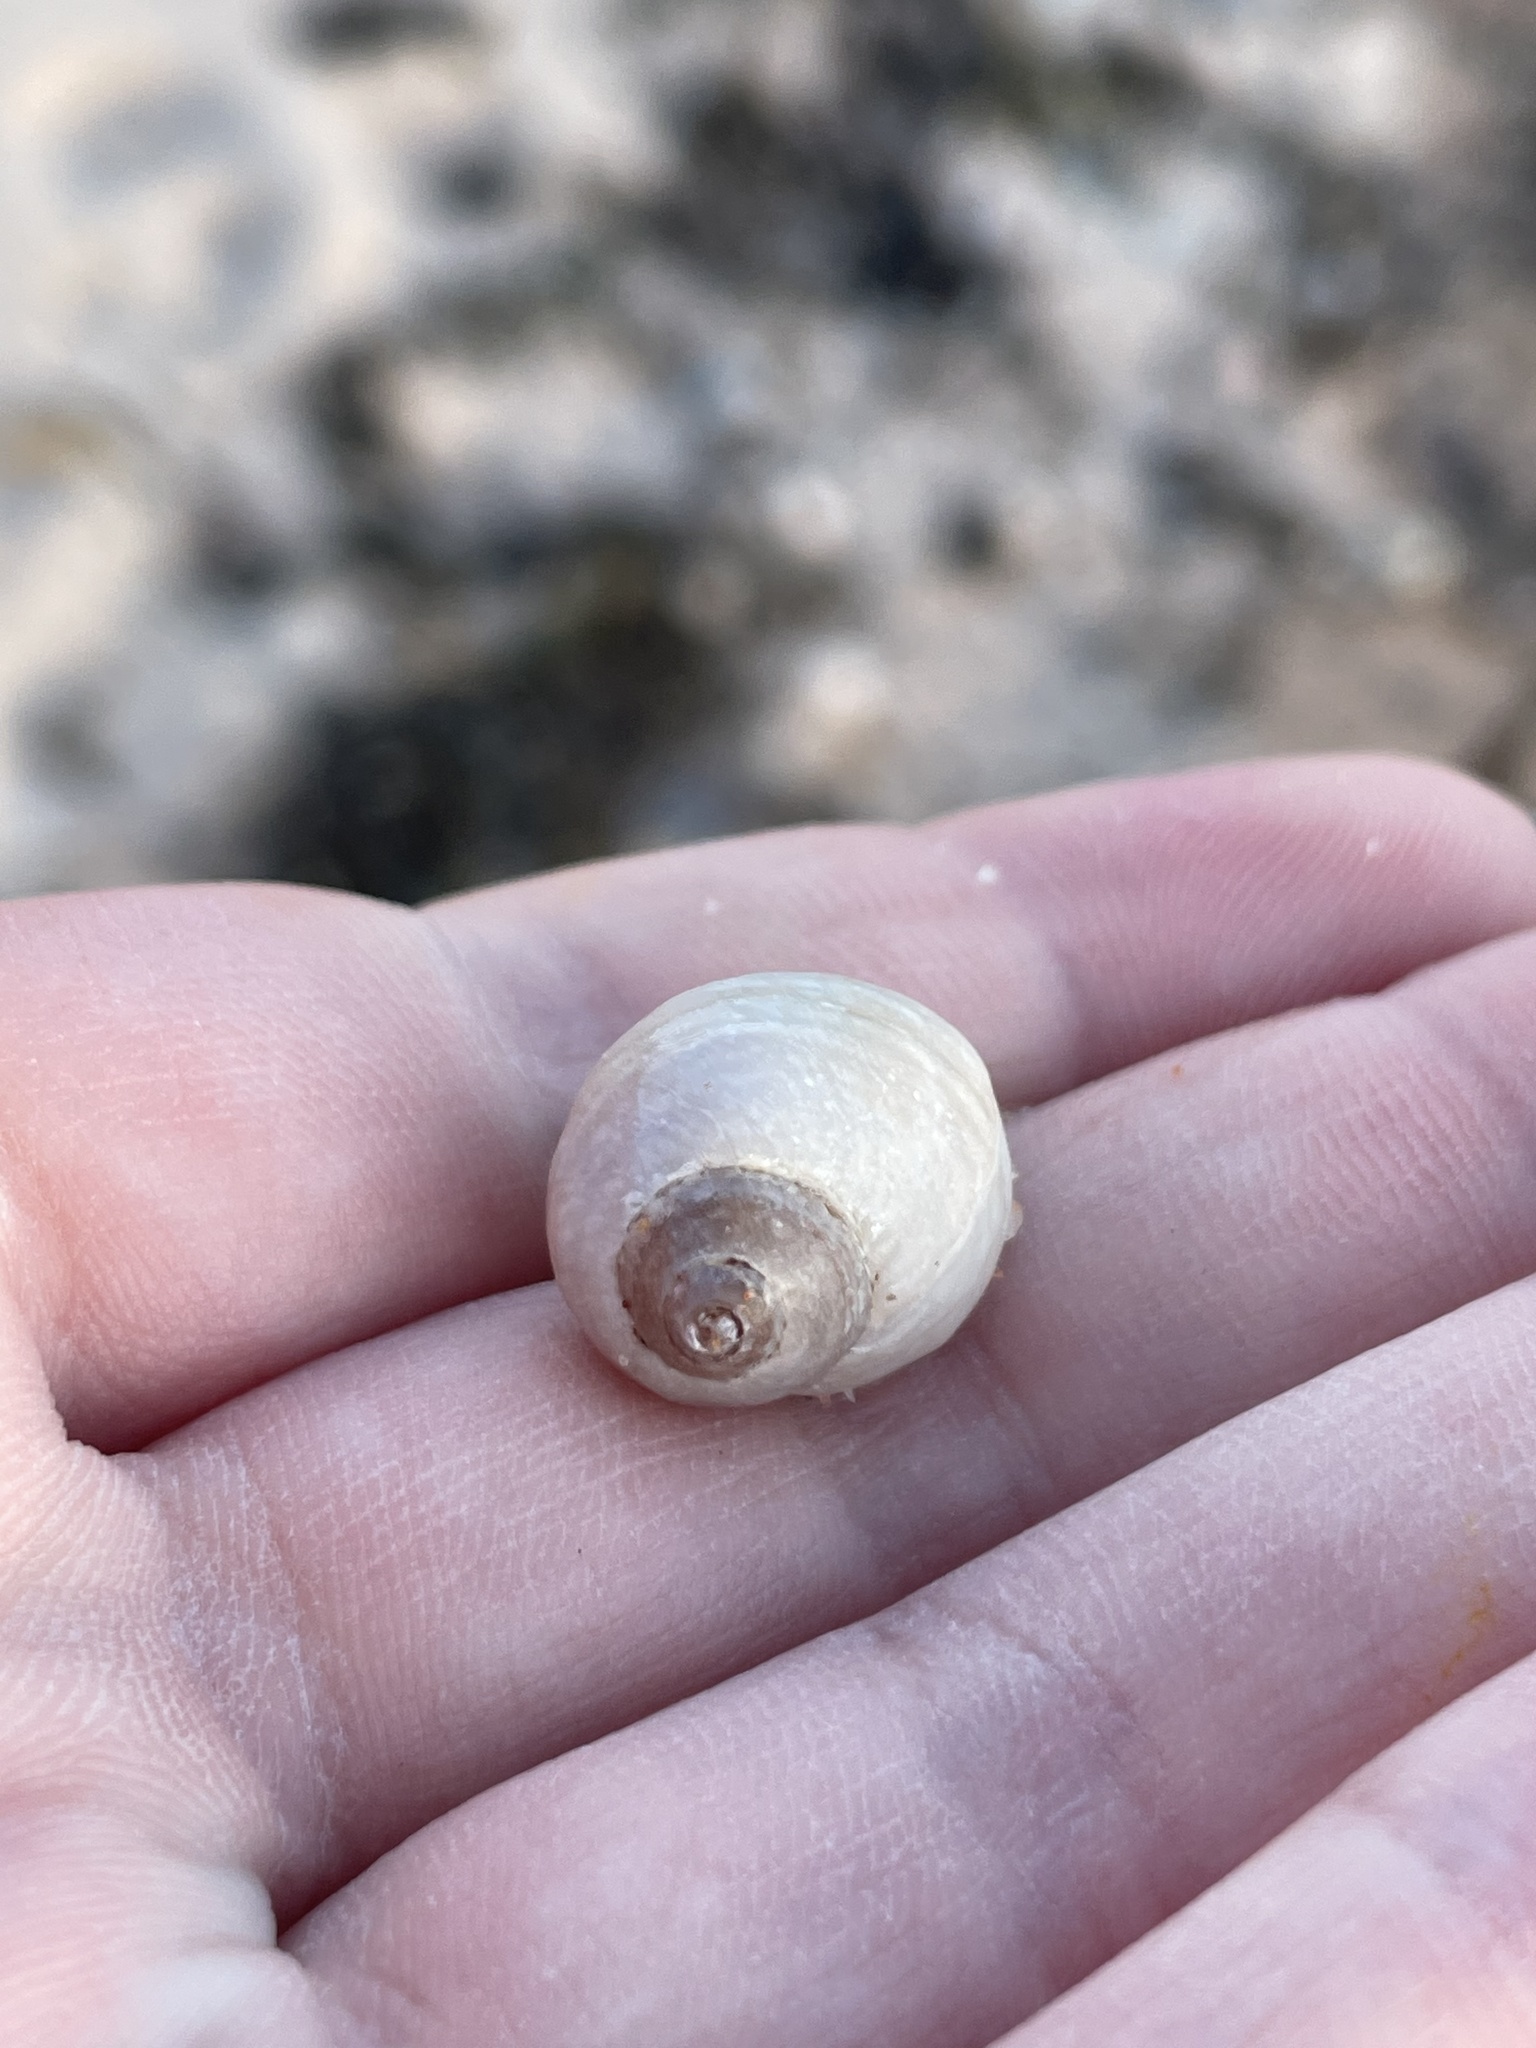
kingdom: Animalia
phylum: Mollusca
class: Gastropoda
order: Neogastropoda
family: Muricidae
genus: Nucella
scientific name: Nucella lapillus
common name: Dog whelk
